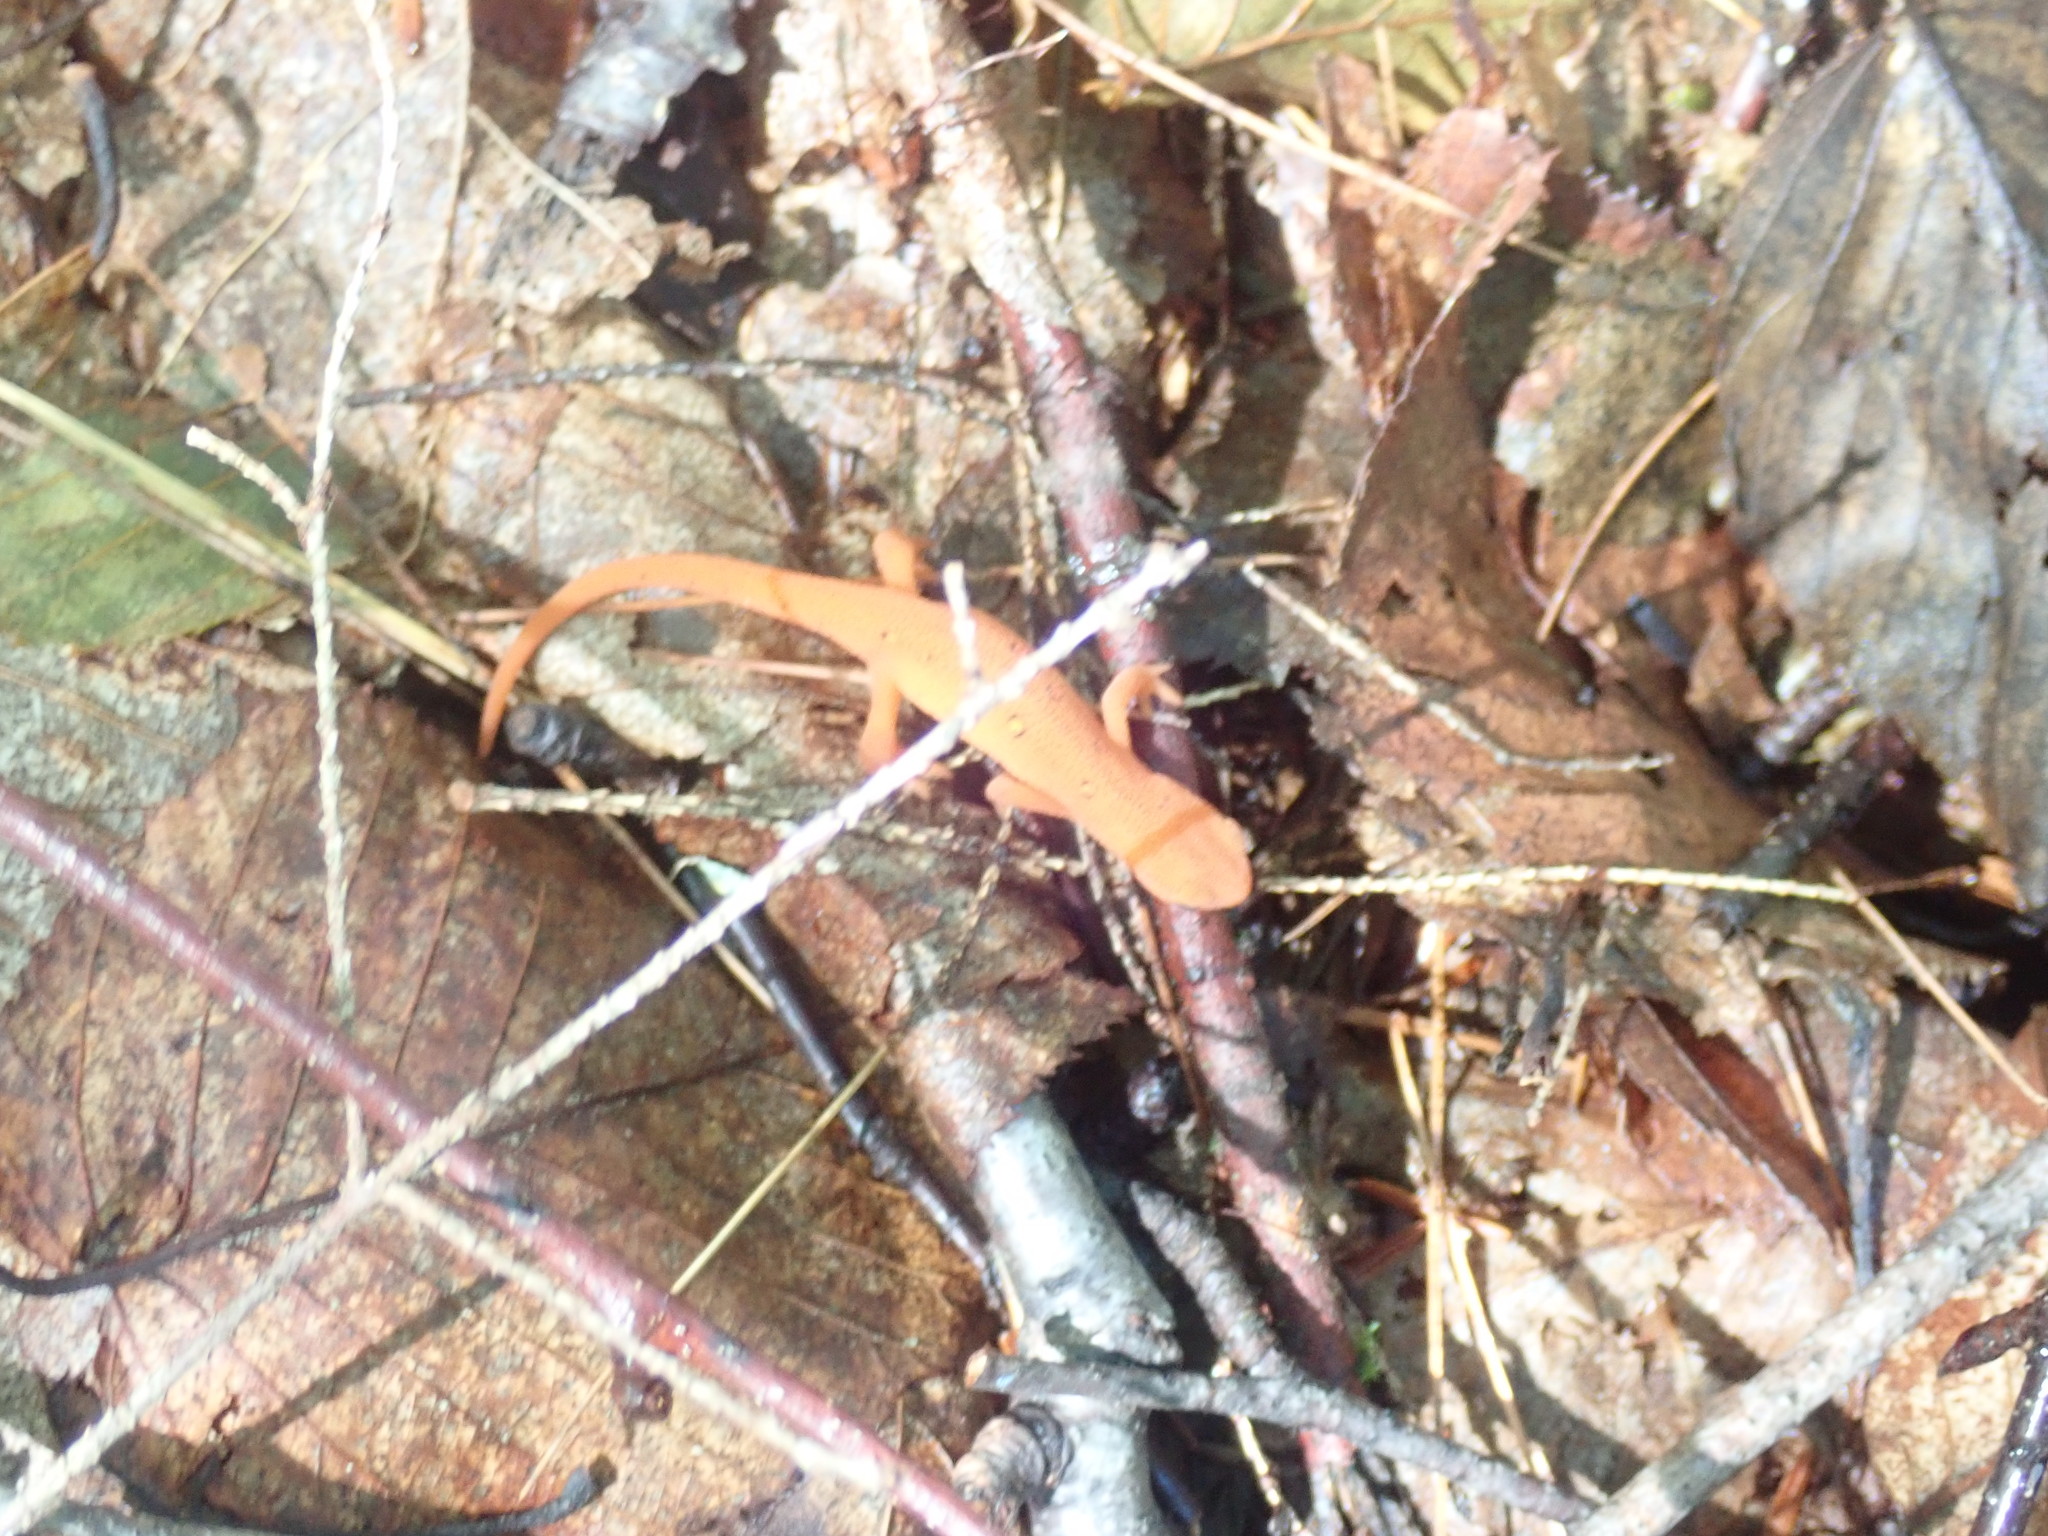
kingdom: Animalia
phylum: Chordata
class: Amphibia
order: Caudata
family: Salamandridae
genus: Notophthalmus
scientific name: Notophthalmus viridescens
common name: Eastern newt
